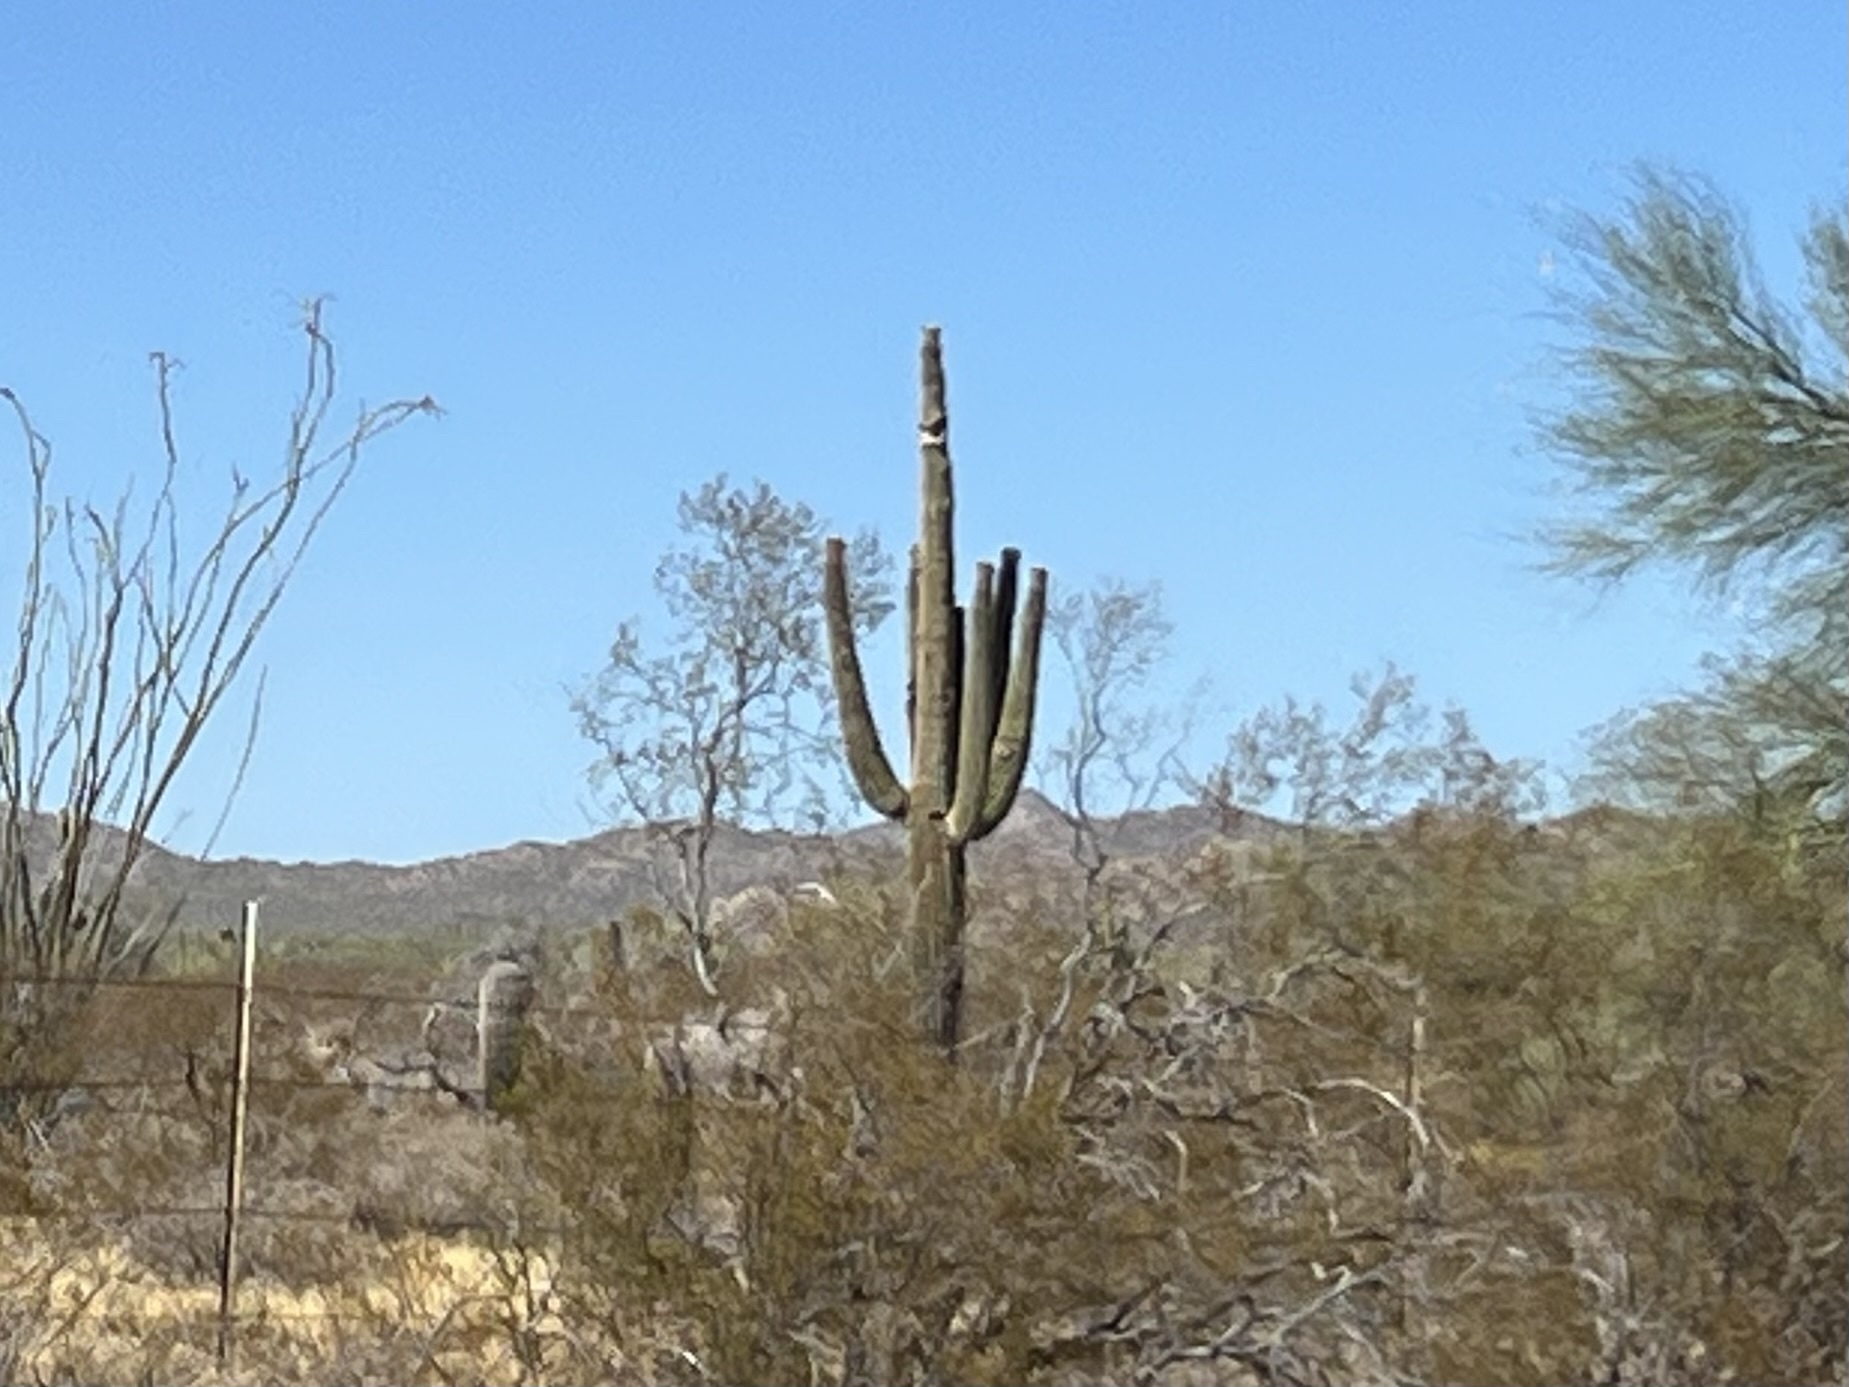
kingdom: Plantae
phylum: Tracheophyta
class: Magnoliopsida
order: Caryophyllales
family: Cactaceae
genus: Carnegiea
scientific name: Carnegiea gigantea
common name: Saguaro
